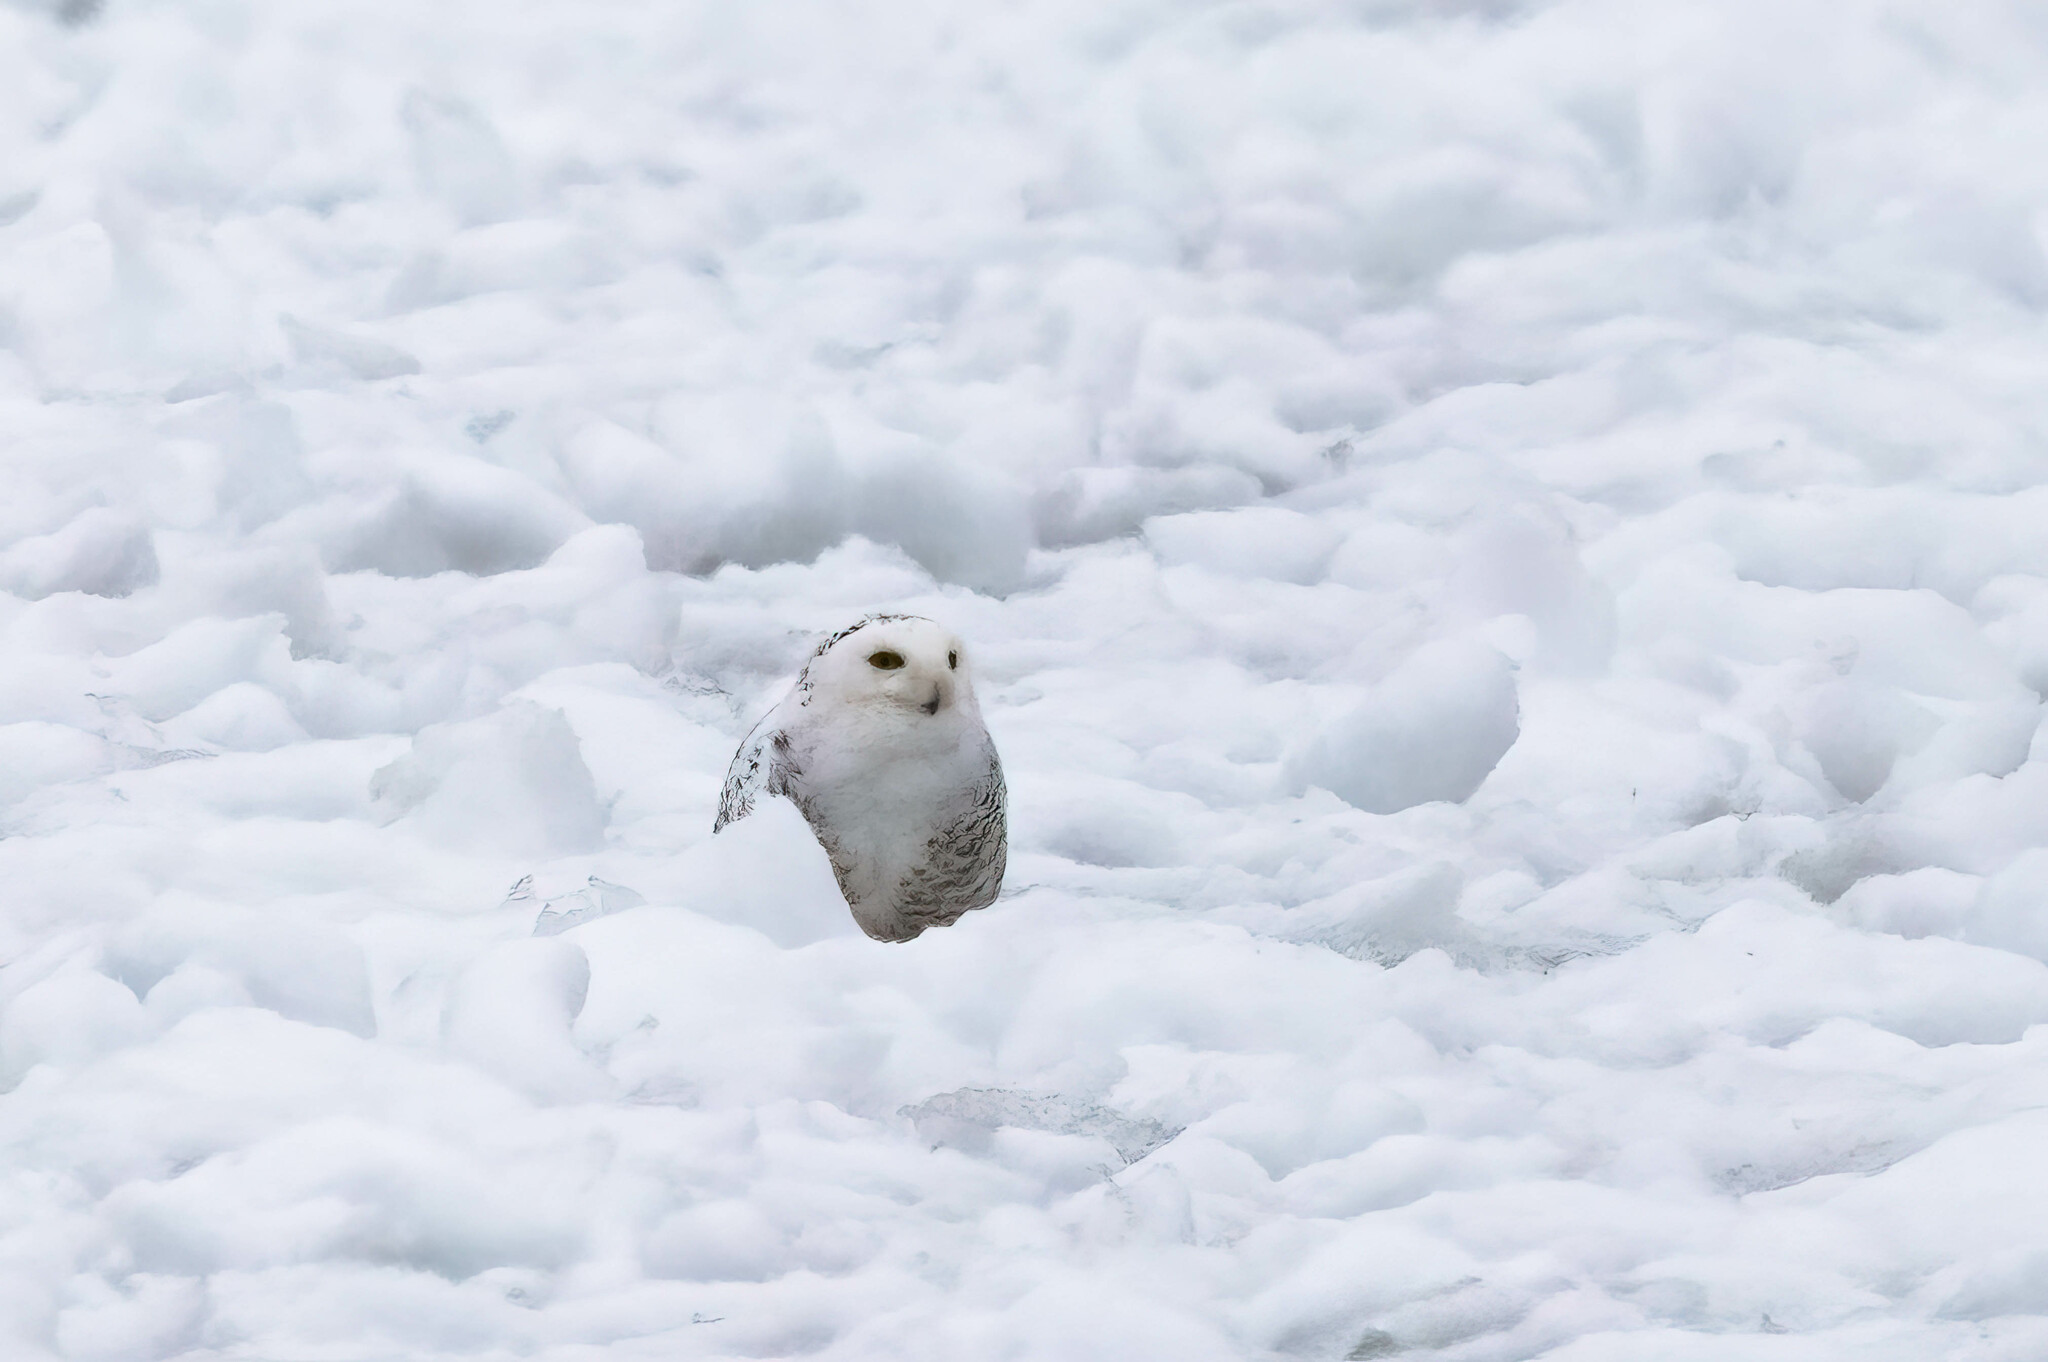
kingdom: Animalia
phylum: Chordata
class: Aves
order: Strigiformes
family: Strigidae
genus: Bubo
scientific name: Bubo scandiacus
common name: Snowy owl
